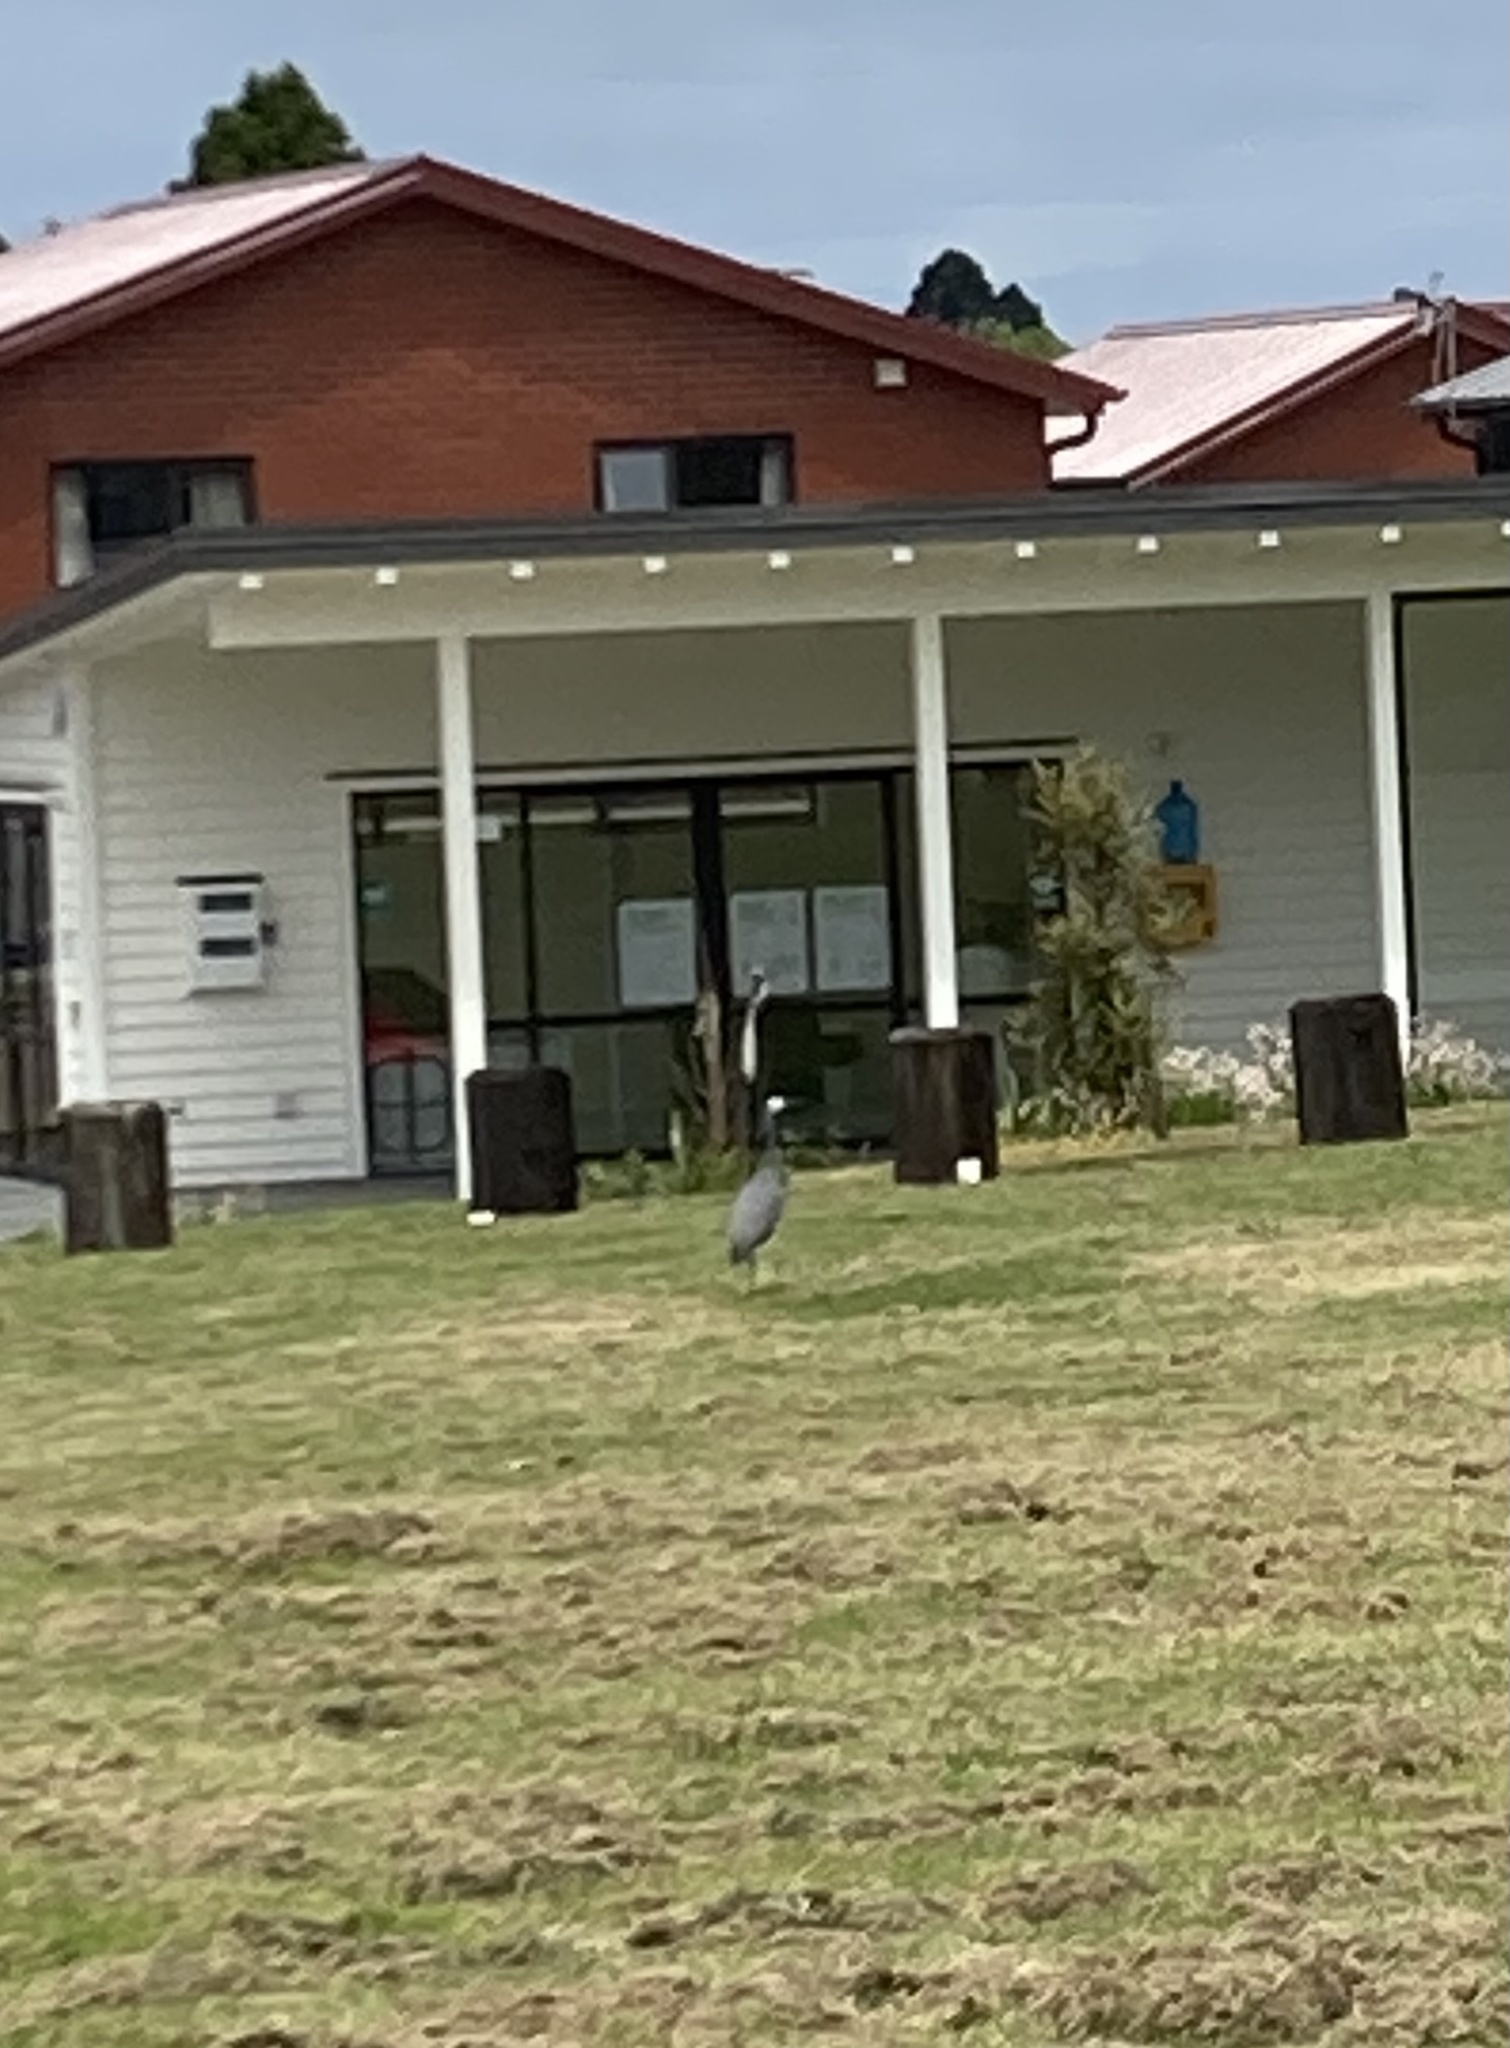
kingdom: Animalia
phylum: Chordata
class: Aves
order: Pelecaniformes
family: Ardeidae
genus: Egretta
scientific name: Egretta novaehollandiae
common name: White-faced heron
